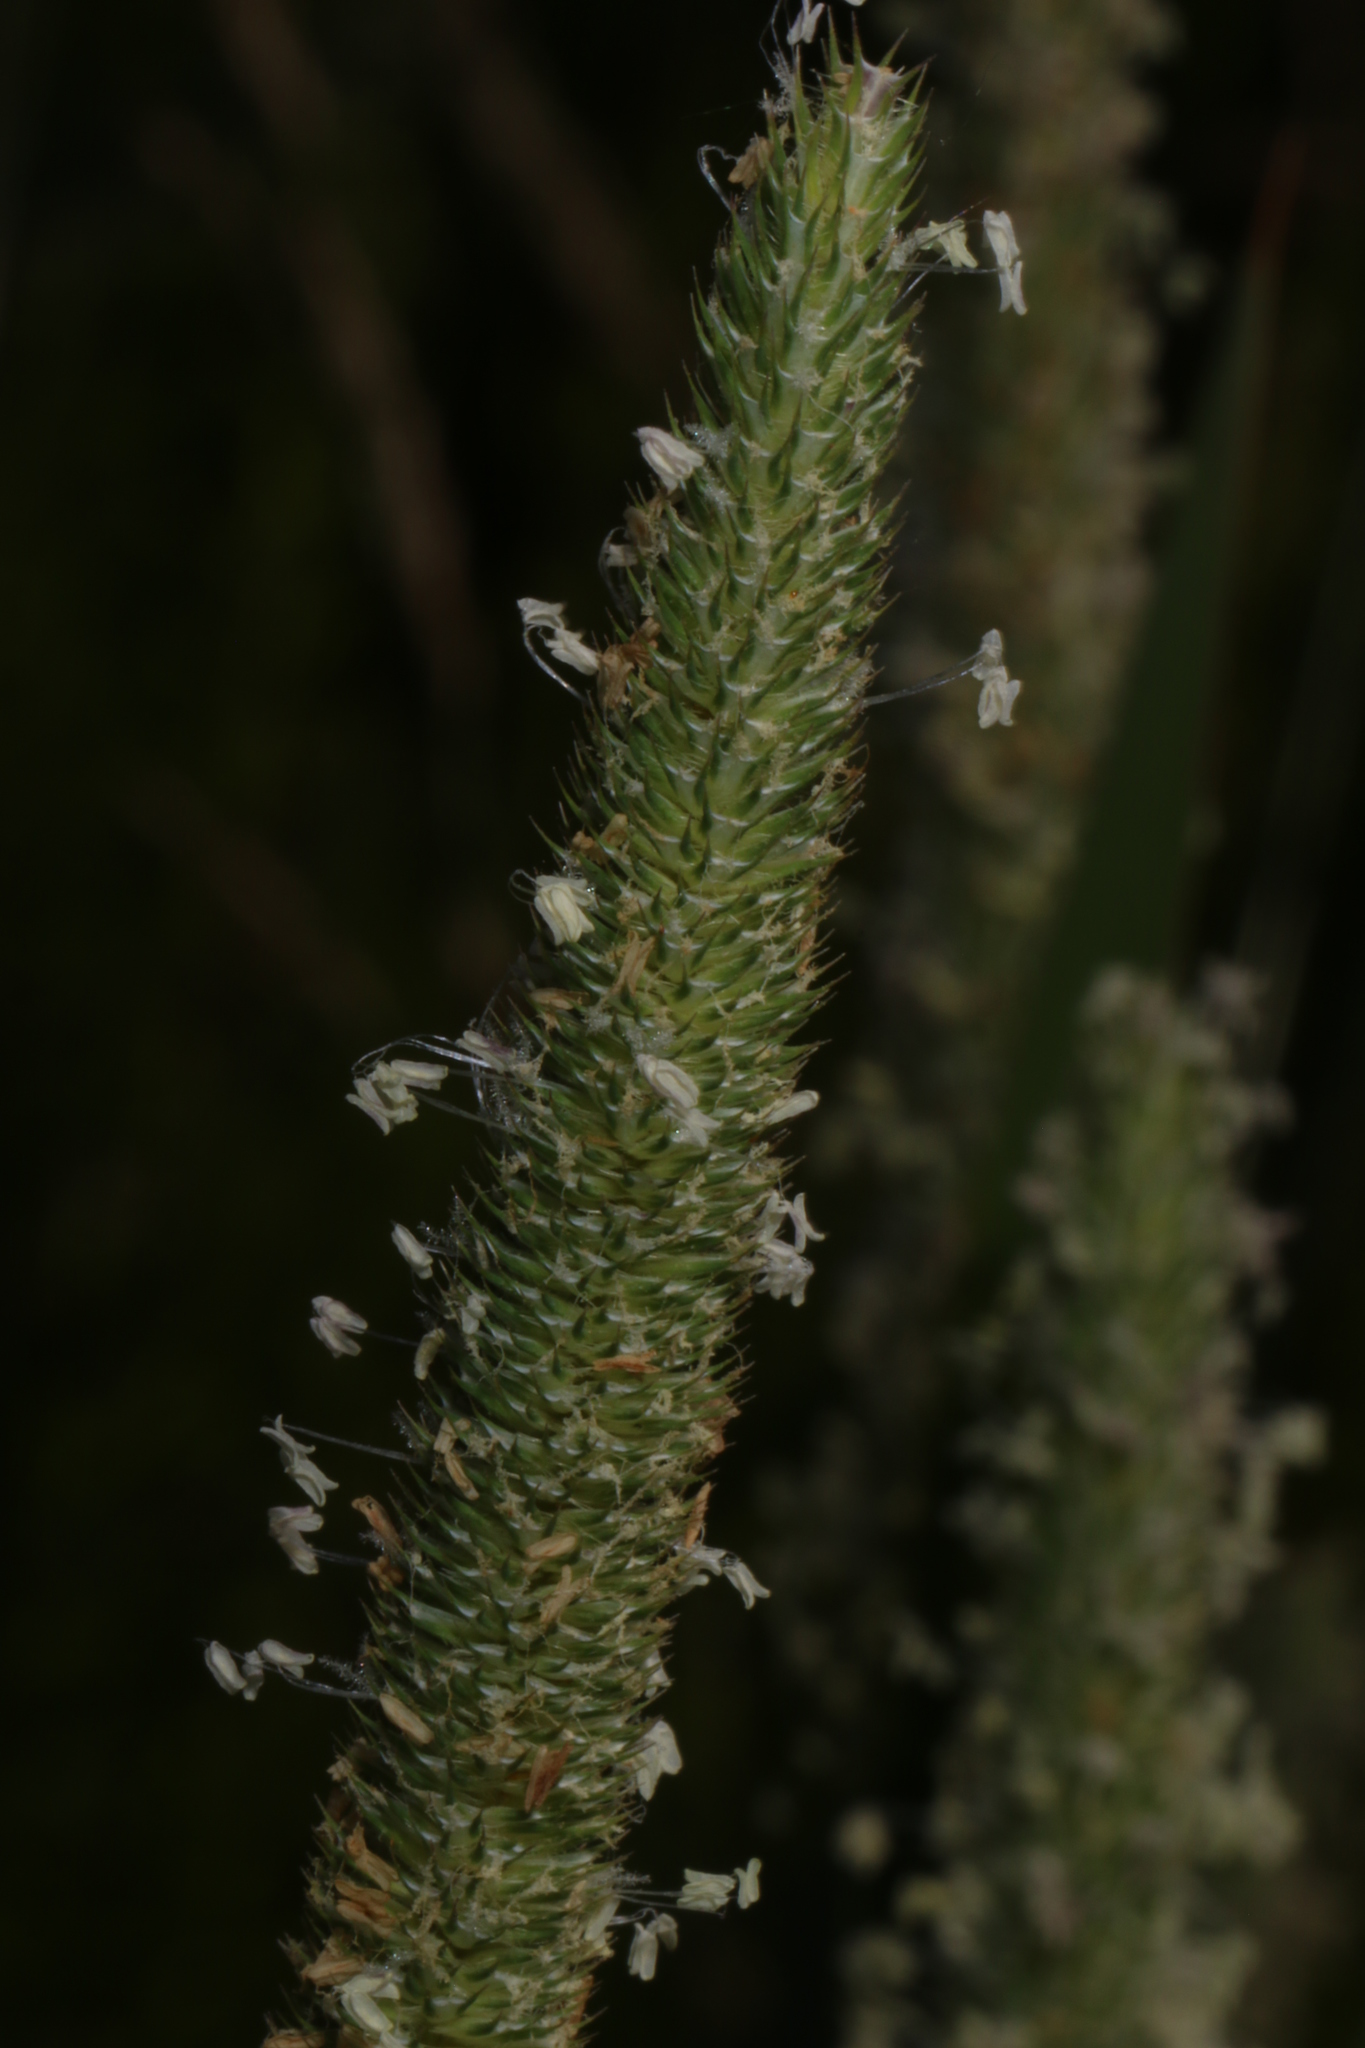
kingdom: Plantae
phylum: Tracheophyta
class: Liliopsida
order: Poales
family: Poaceae
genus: Phleum
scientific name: Phleum pratense
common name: Timothy grass
